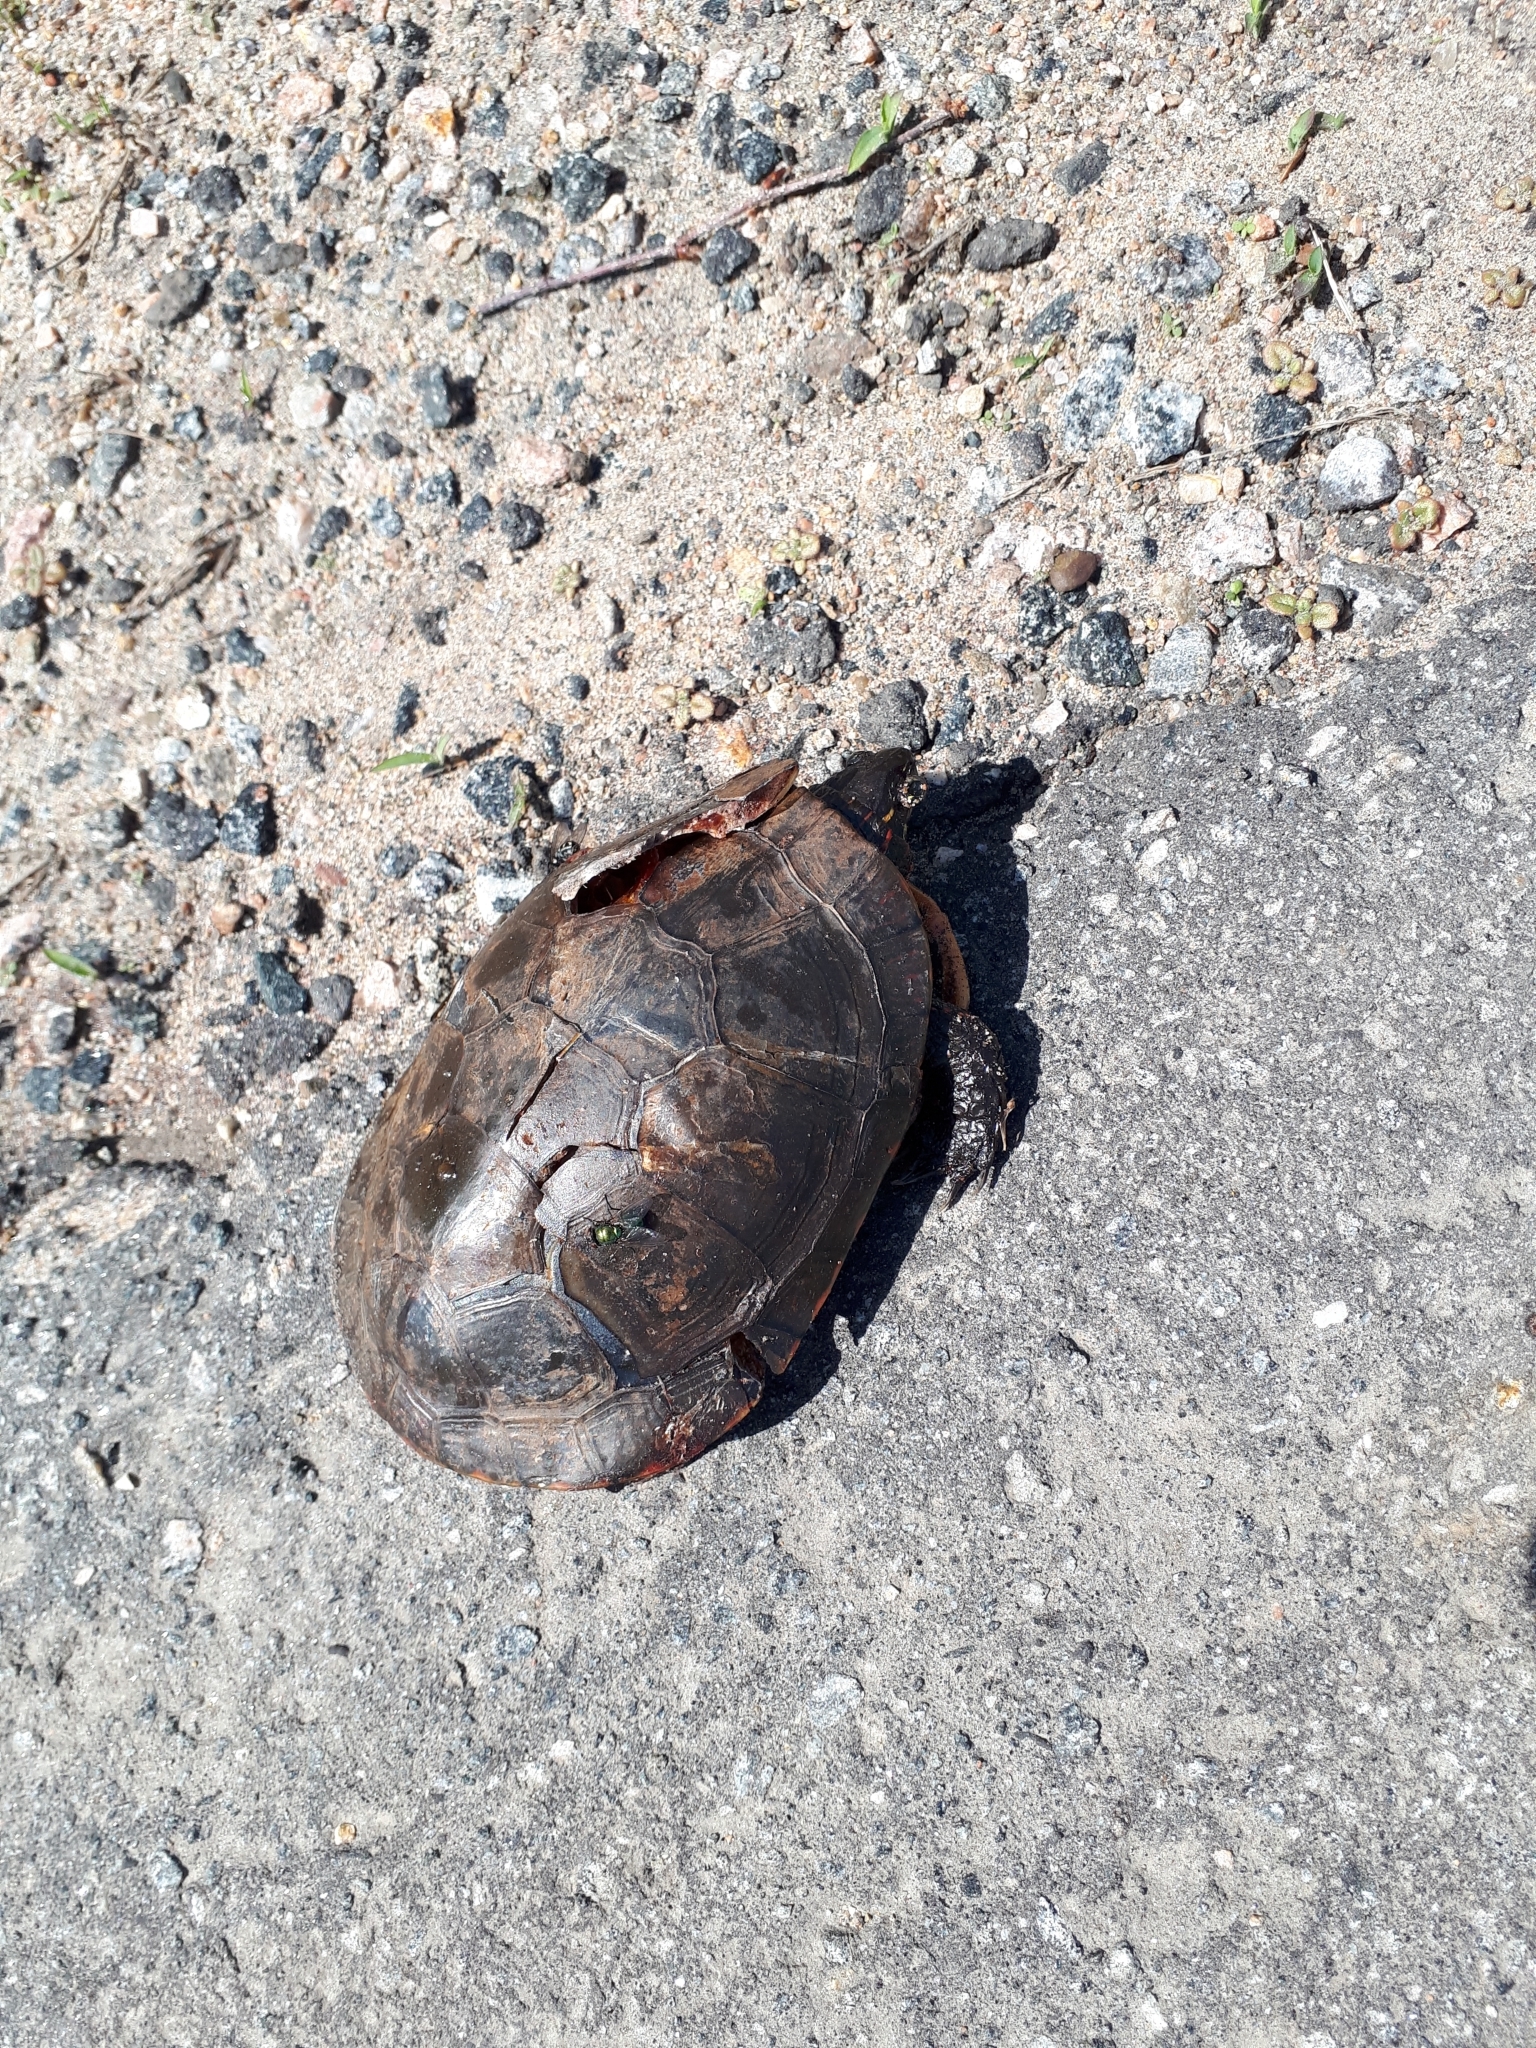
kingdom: Animalia
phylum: Chordata
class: Testudines
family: Emydidae
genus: Chrysemys
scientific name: Chrysemys picta
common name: Painted turtle
